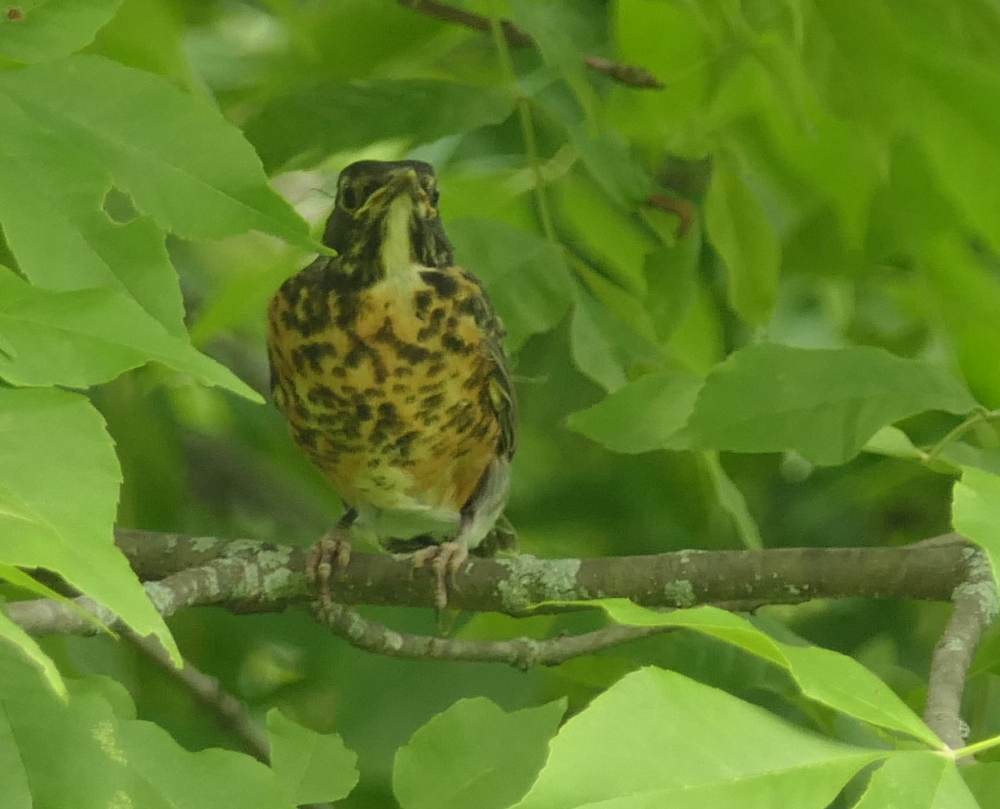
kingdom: Animalia
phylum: Chordata
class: Aves
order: Passeriformes
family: Turdidae
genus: Turdus
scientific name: Turdus migratorius
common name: American robin
